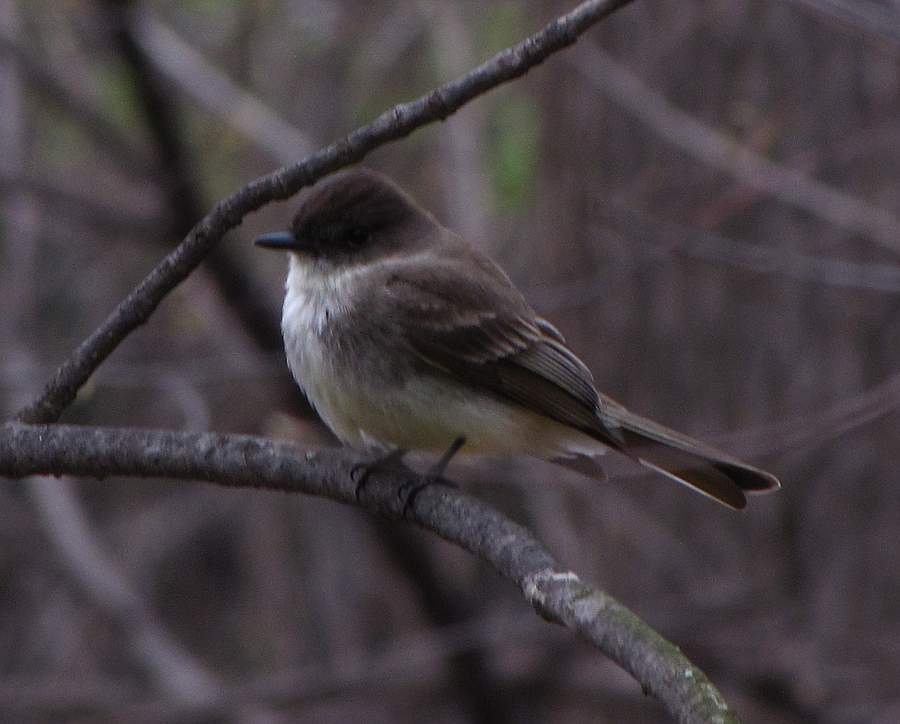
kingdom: Animalia
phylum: Chordata
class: Aves
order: Passeriformes
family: Tyrannidae
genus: Sayornis
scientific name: Sayornis phoebe
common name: Eastern phoebe
